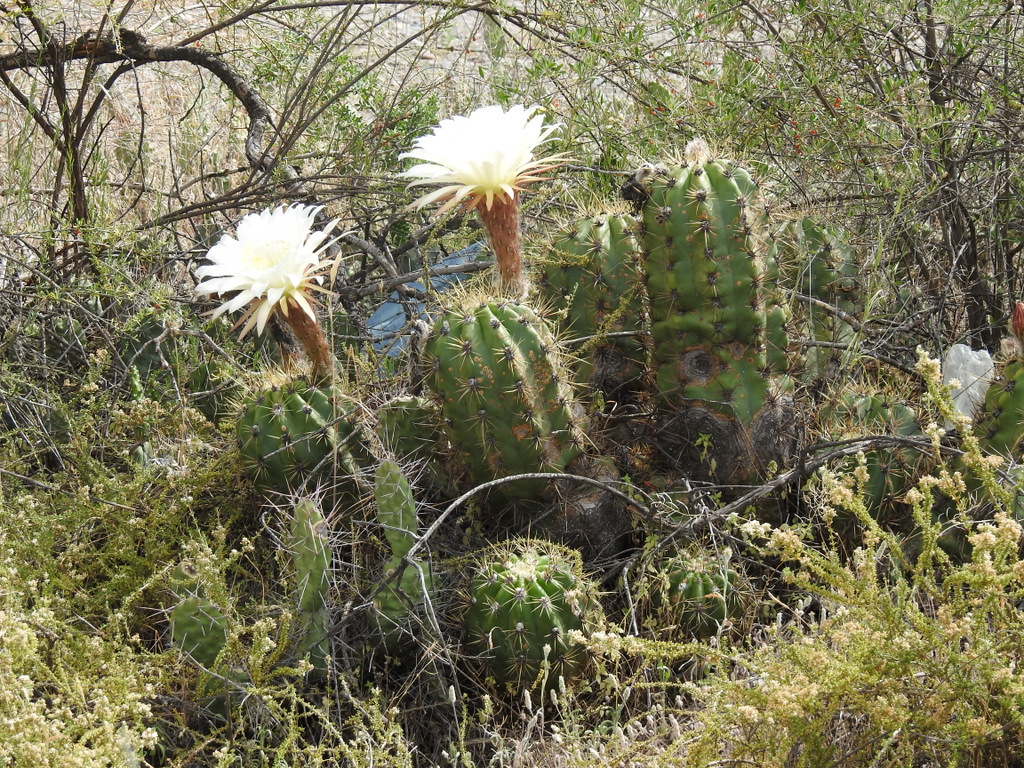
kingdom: Plantae
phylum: Tracheophyta
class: Magnoliopsida
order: Caryophyllales
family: Cactaceae
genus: Soehrensia
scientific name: Soehrensia candicans
